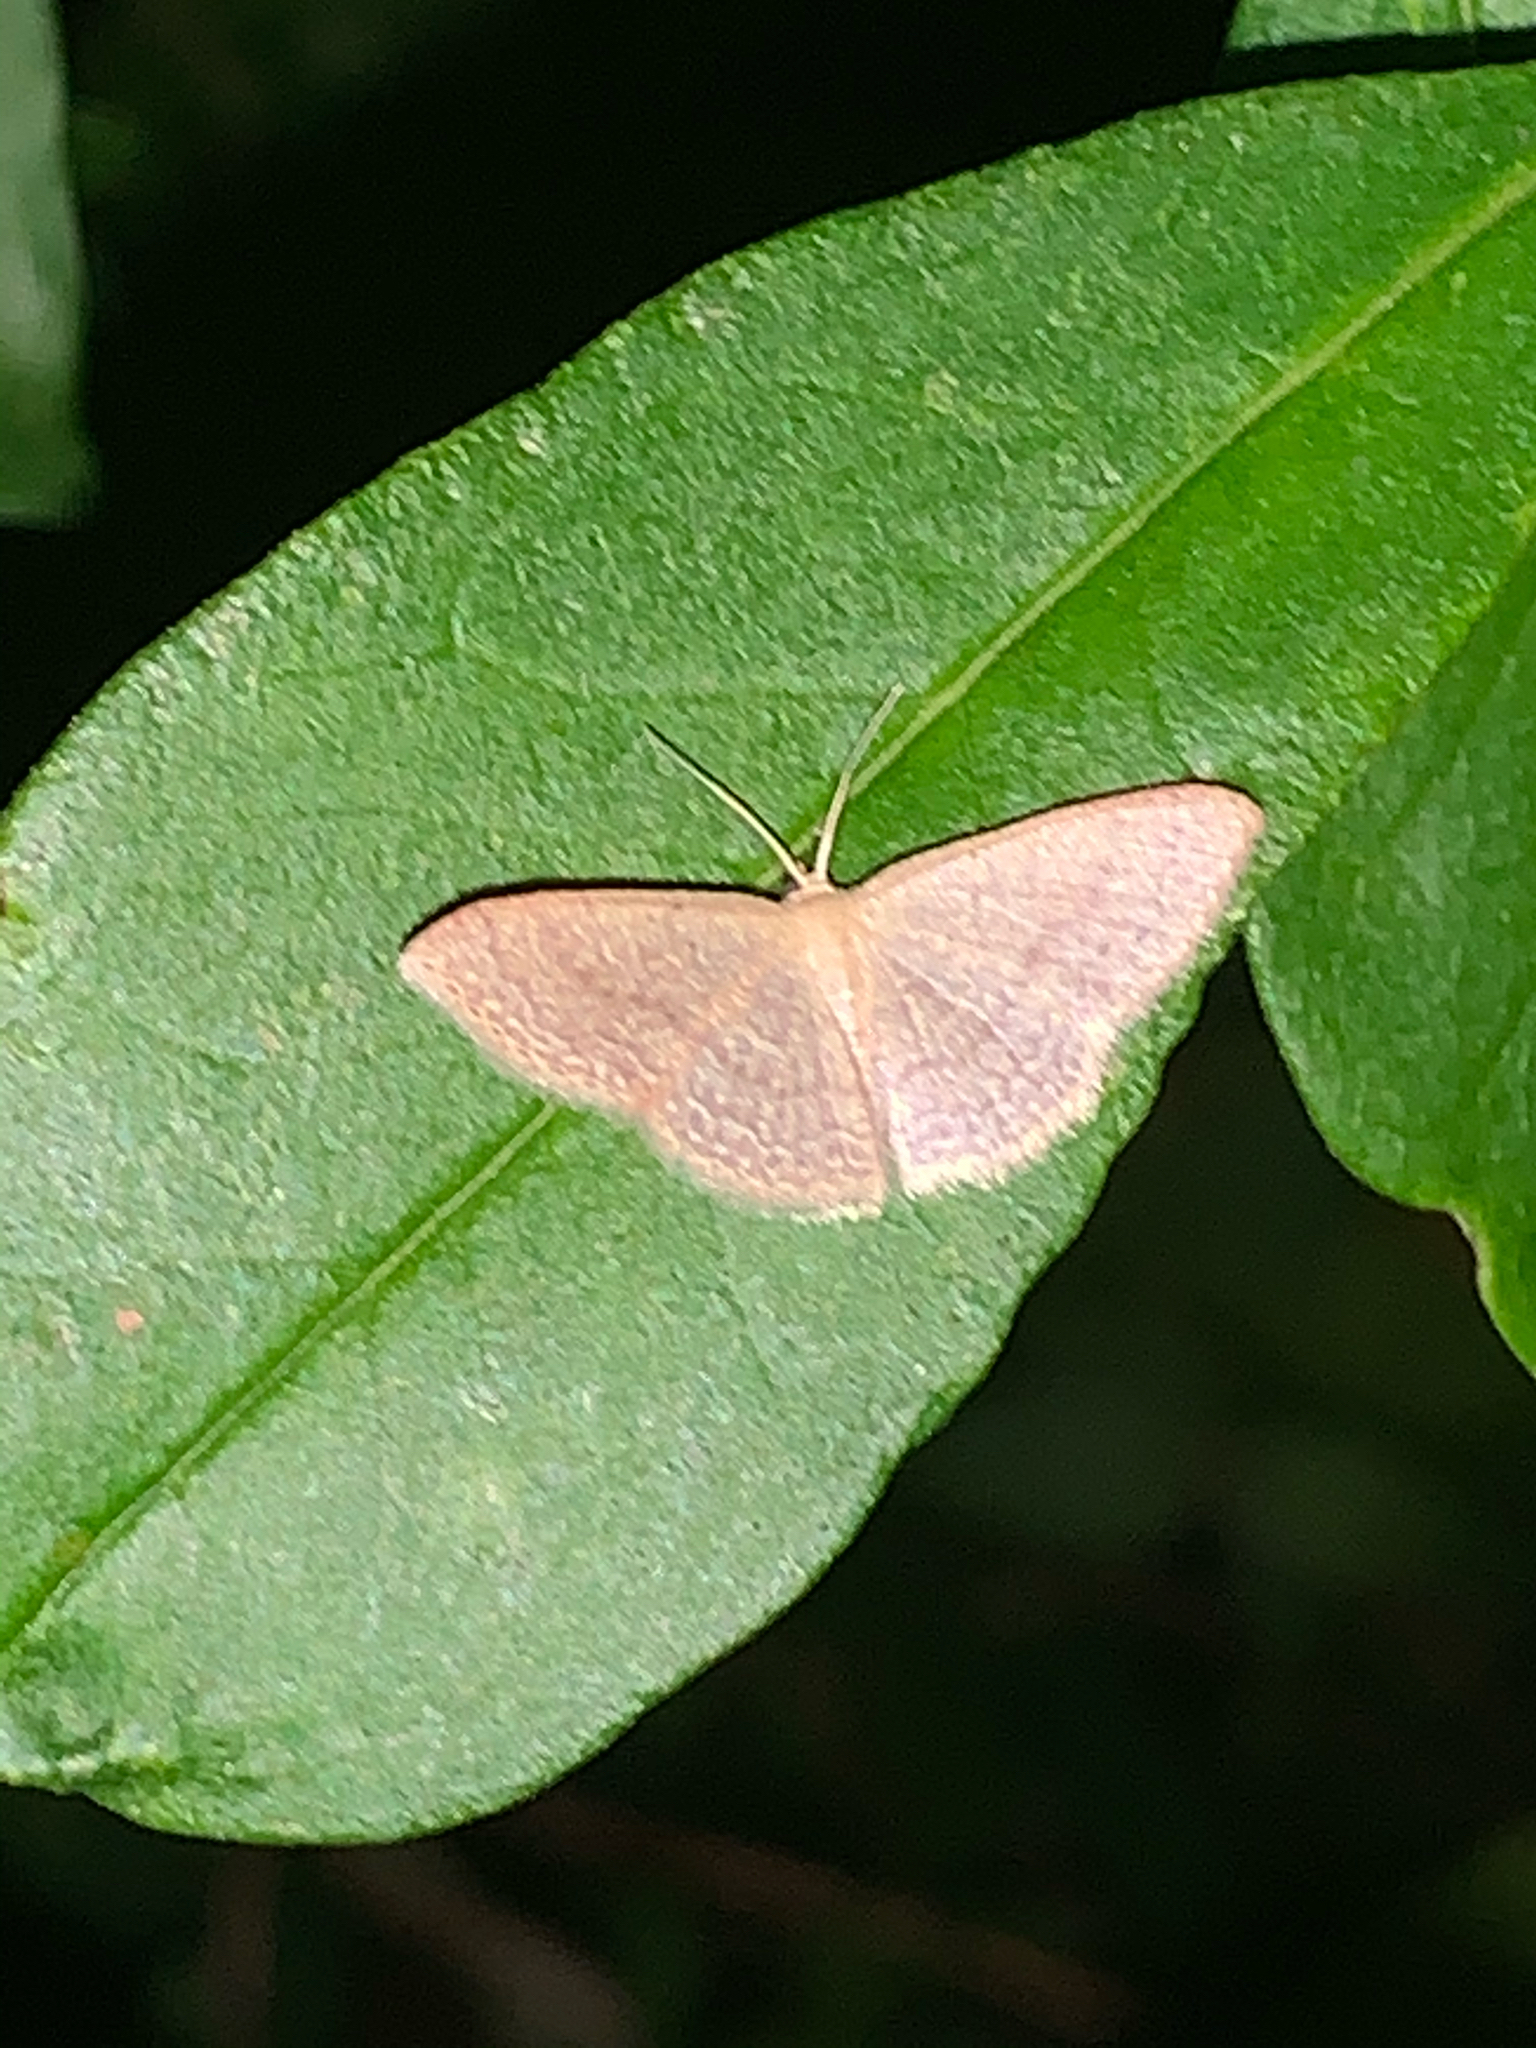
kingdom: Animalia
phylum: Arthropoda
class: Insecta
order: Lepidoptera
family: Geometridae
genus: Pleuroprucha
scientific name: Pleuroprucha insulsaria
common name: Common tan wave
